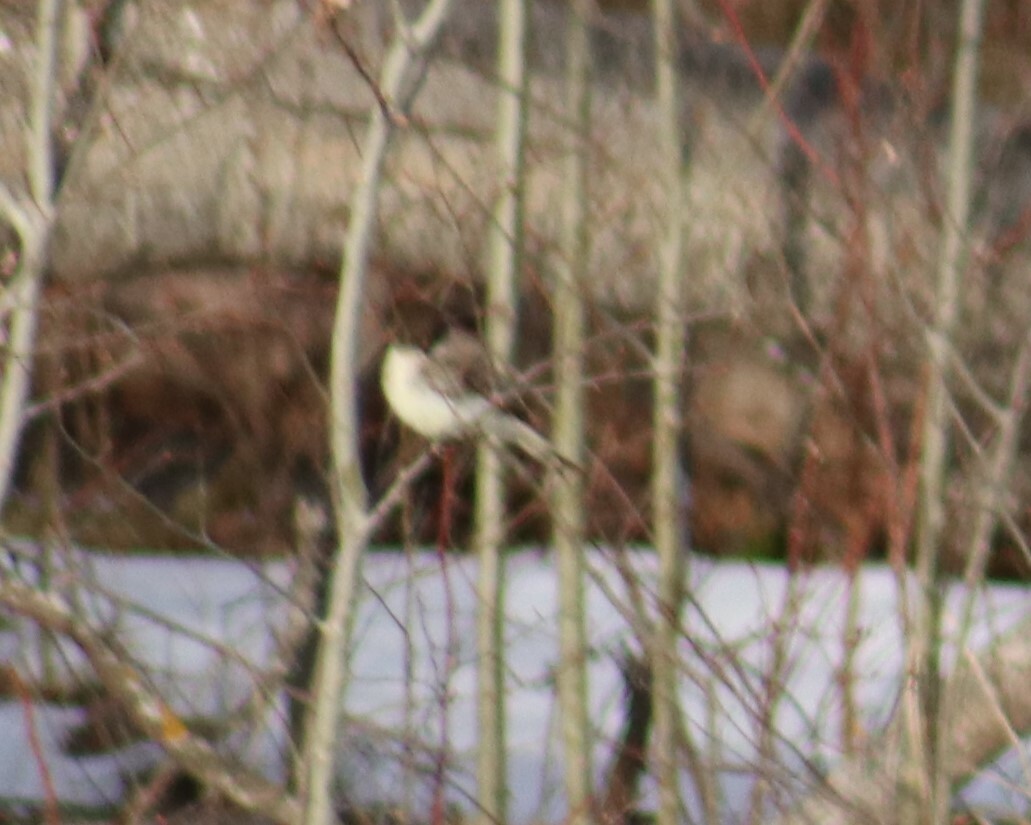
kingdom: Animalia
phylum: Chordata
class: Aves
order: Passeriformes
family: Tyrannidae
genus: Sayornis
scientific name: Sayornis phoebe
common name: Eastern phoebe
